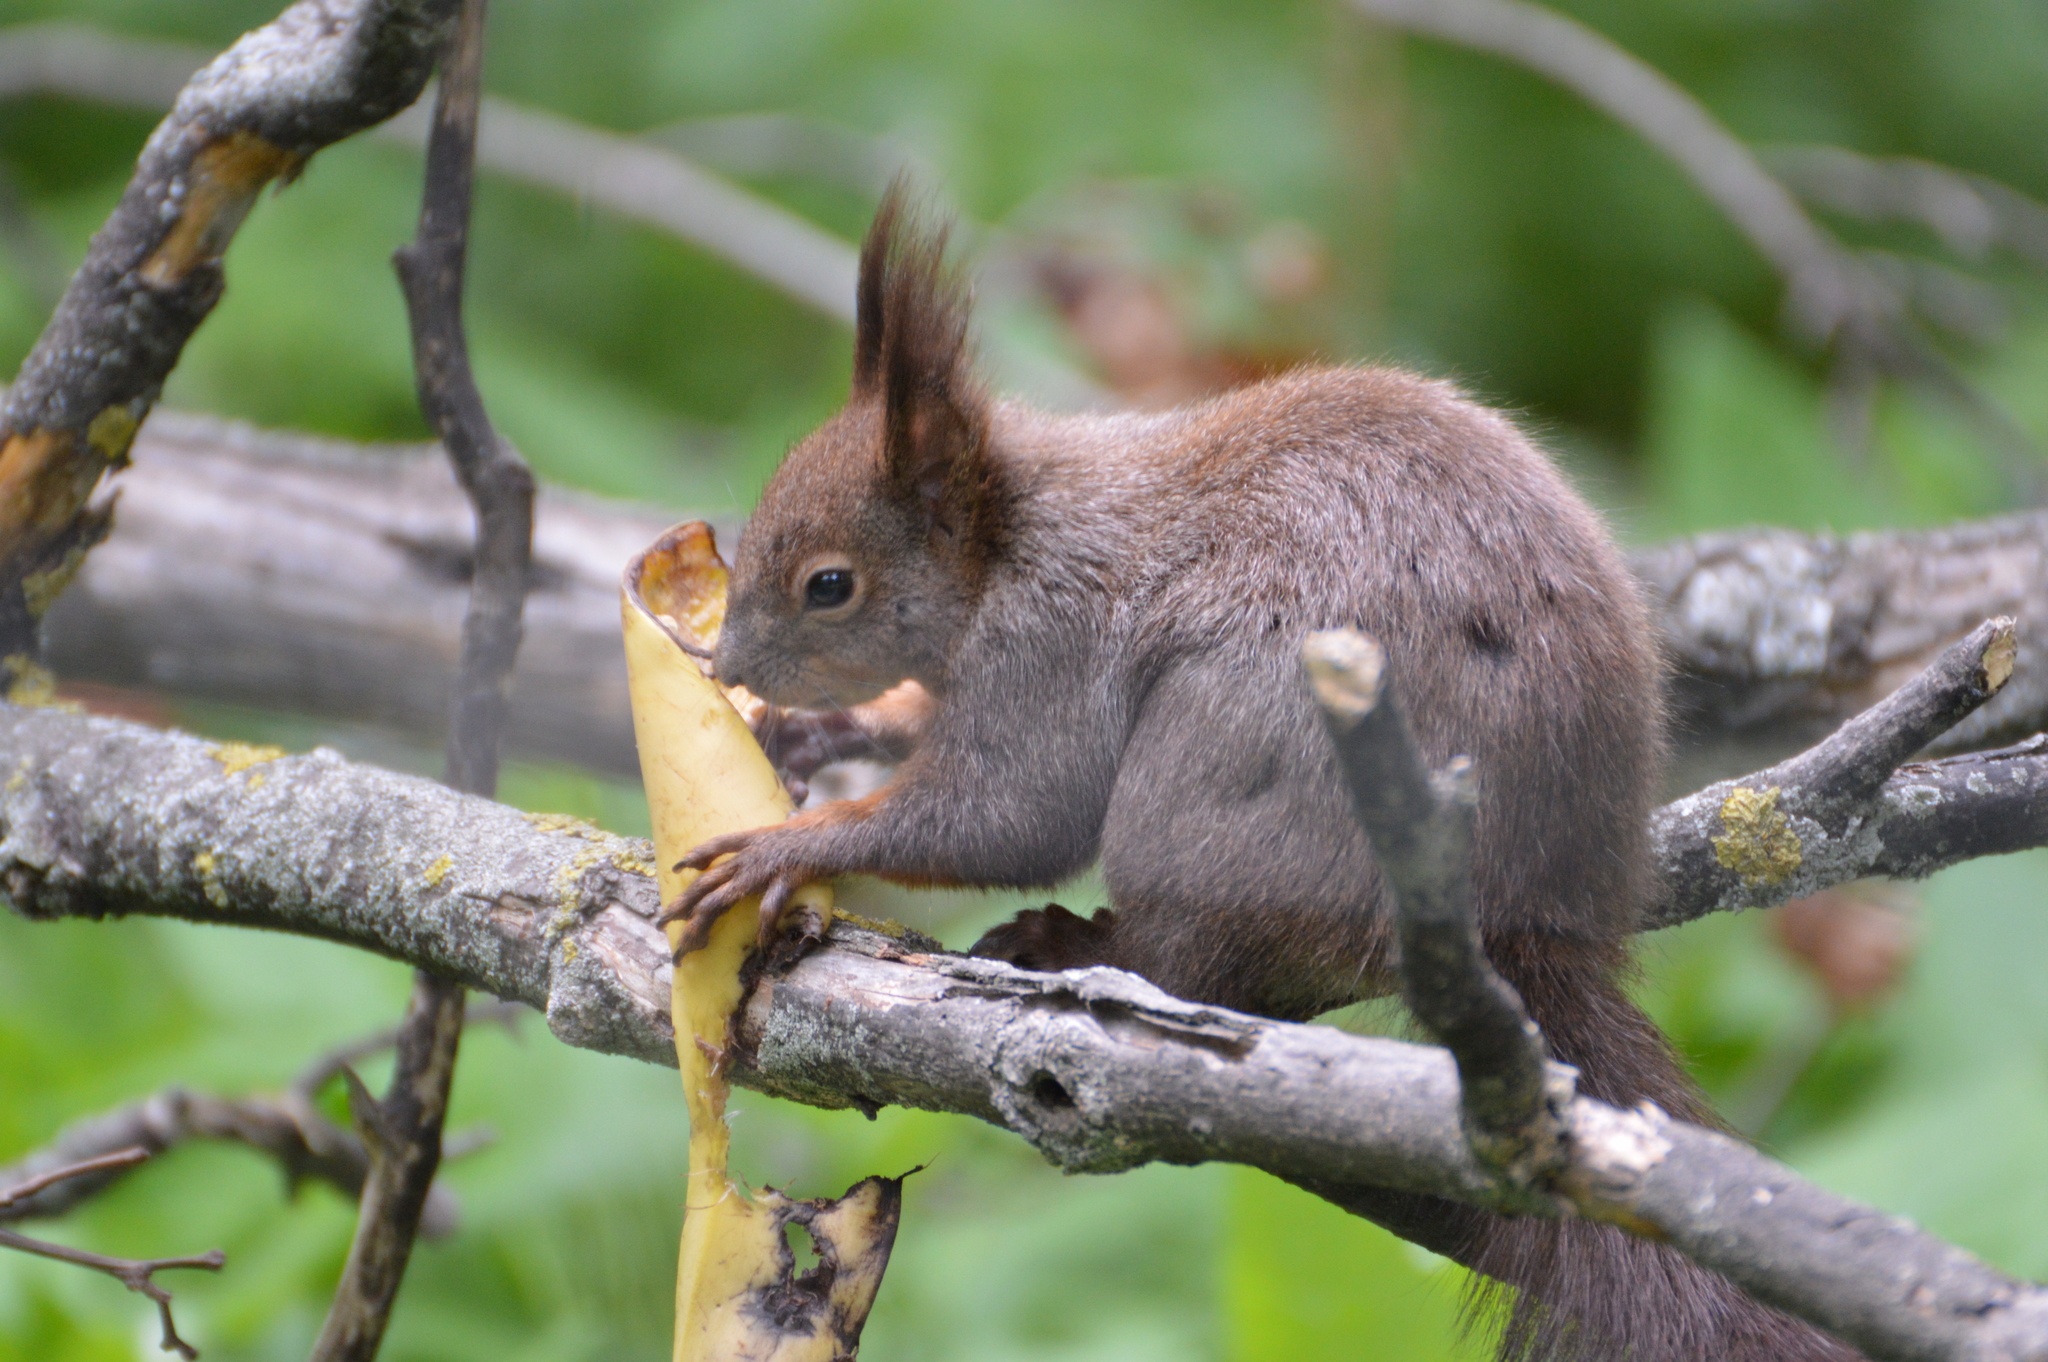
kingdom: Animalia
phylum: Chordata
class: Mammalia
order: Rodentia
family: Sciuridae
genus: Sciurus
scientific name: Sciurus vulgaris
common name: Eurasian red squirrel
